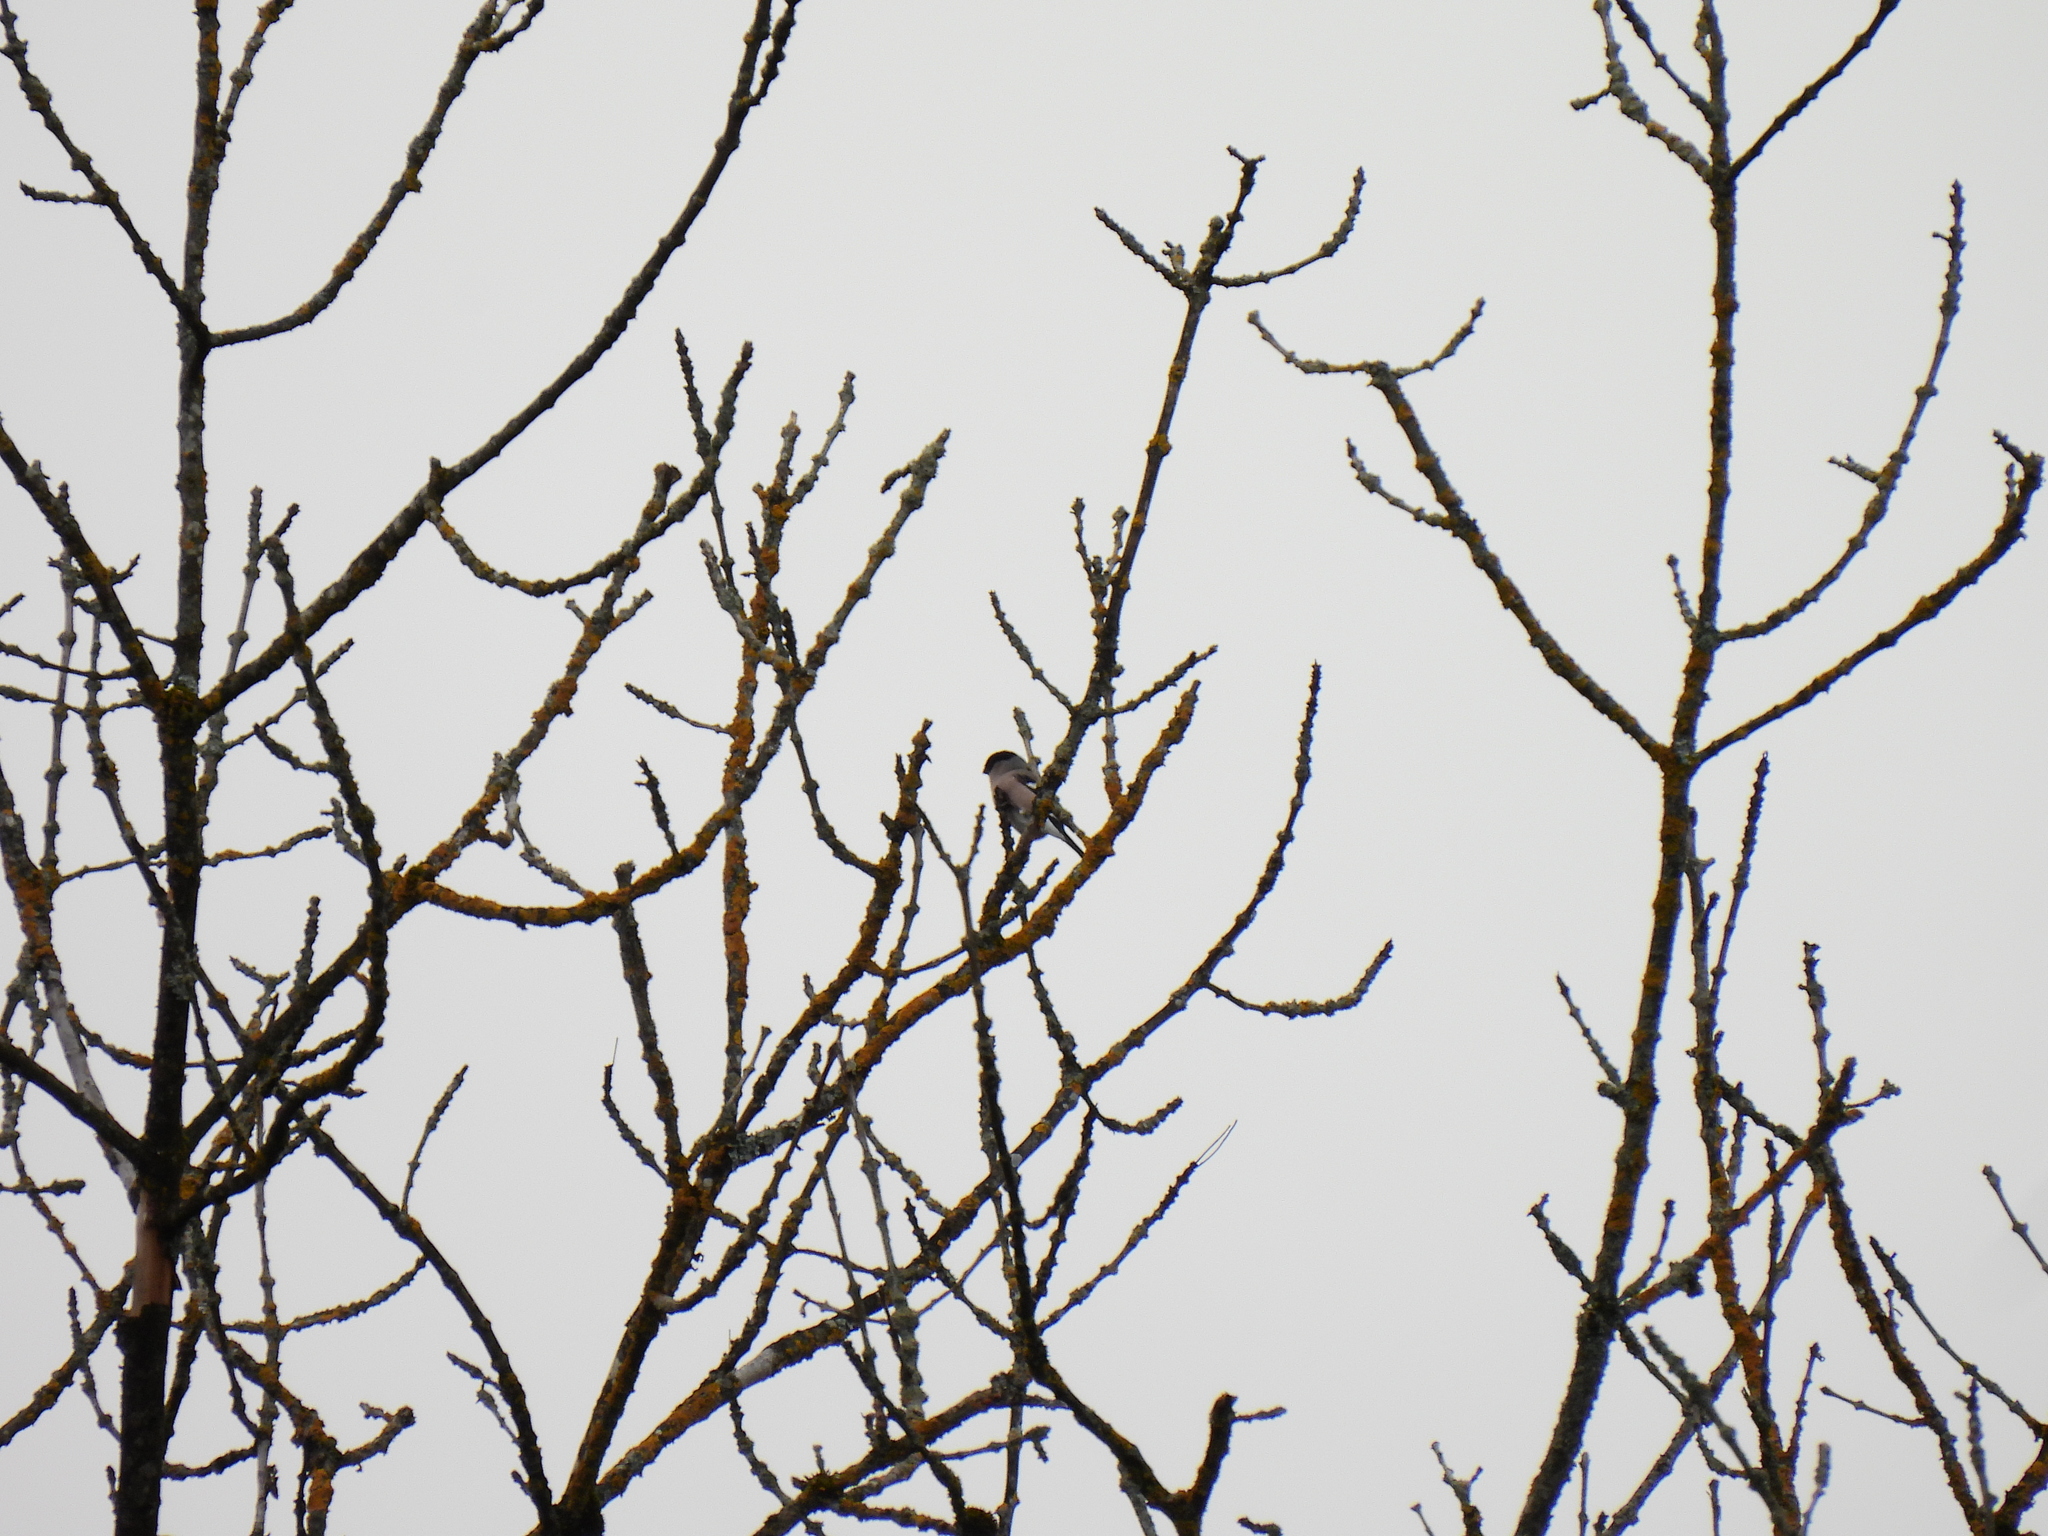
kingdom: Animalia
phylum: Chordata
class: Aves
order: Passeriformes
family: Fringillidae
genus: Pyrrhula
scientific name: Pyrrhula pyrrhula
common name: Eurasian bullfinch
